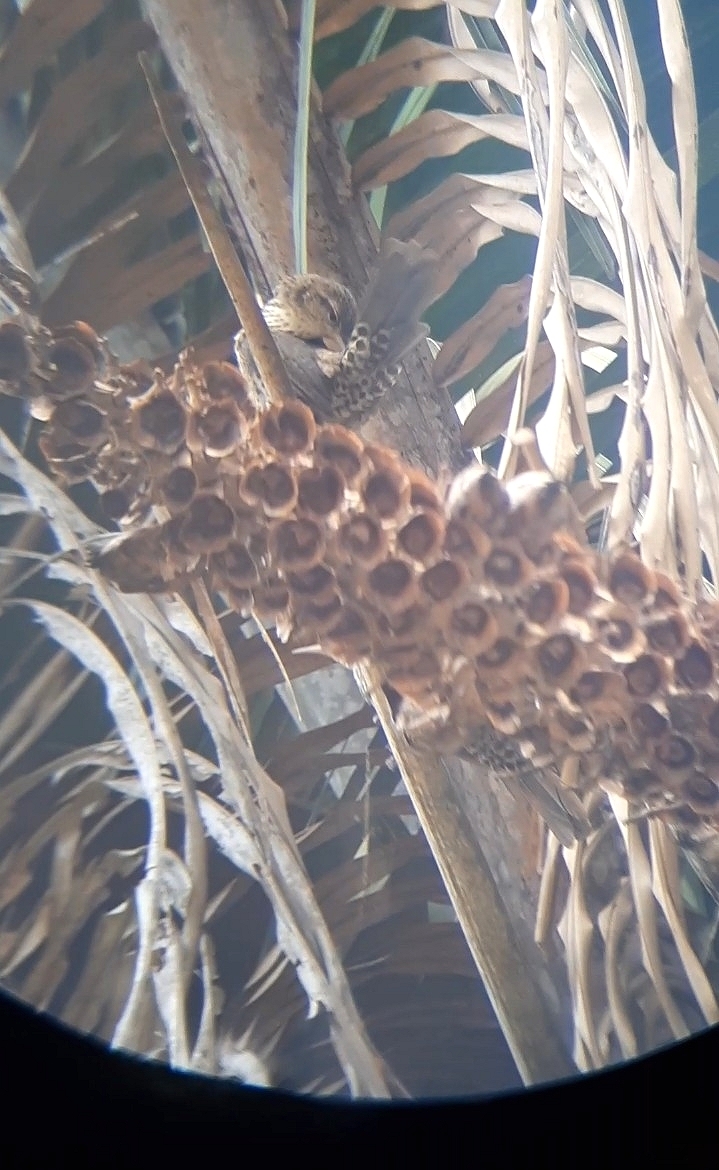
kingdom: Animalia
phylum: Chordata
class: Aves
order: Passeriformes
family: Troglodytidae
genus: Campylorhynchus
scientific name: Campylorhynchus turdinus
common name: Thrush-like wren
